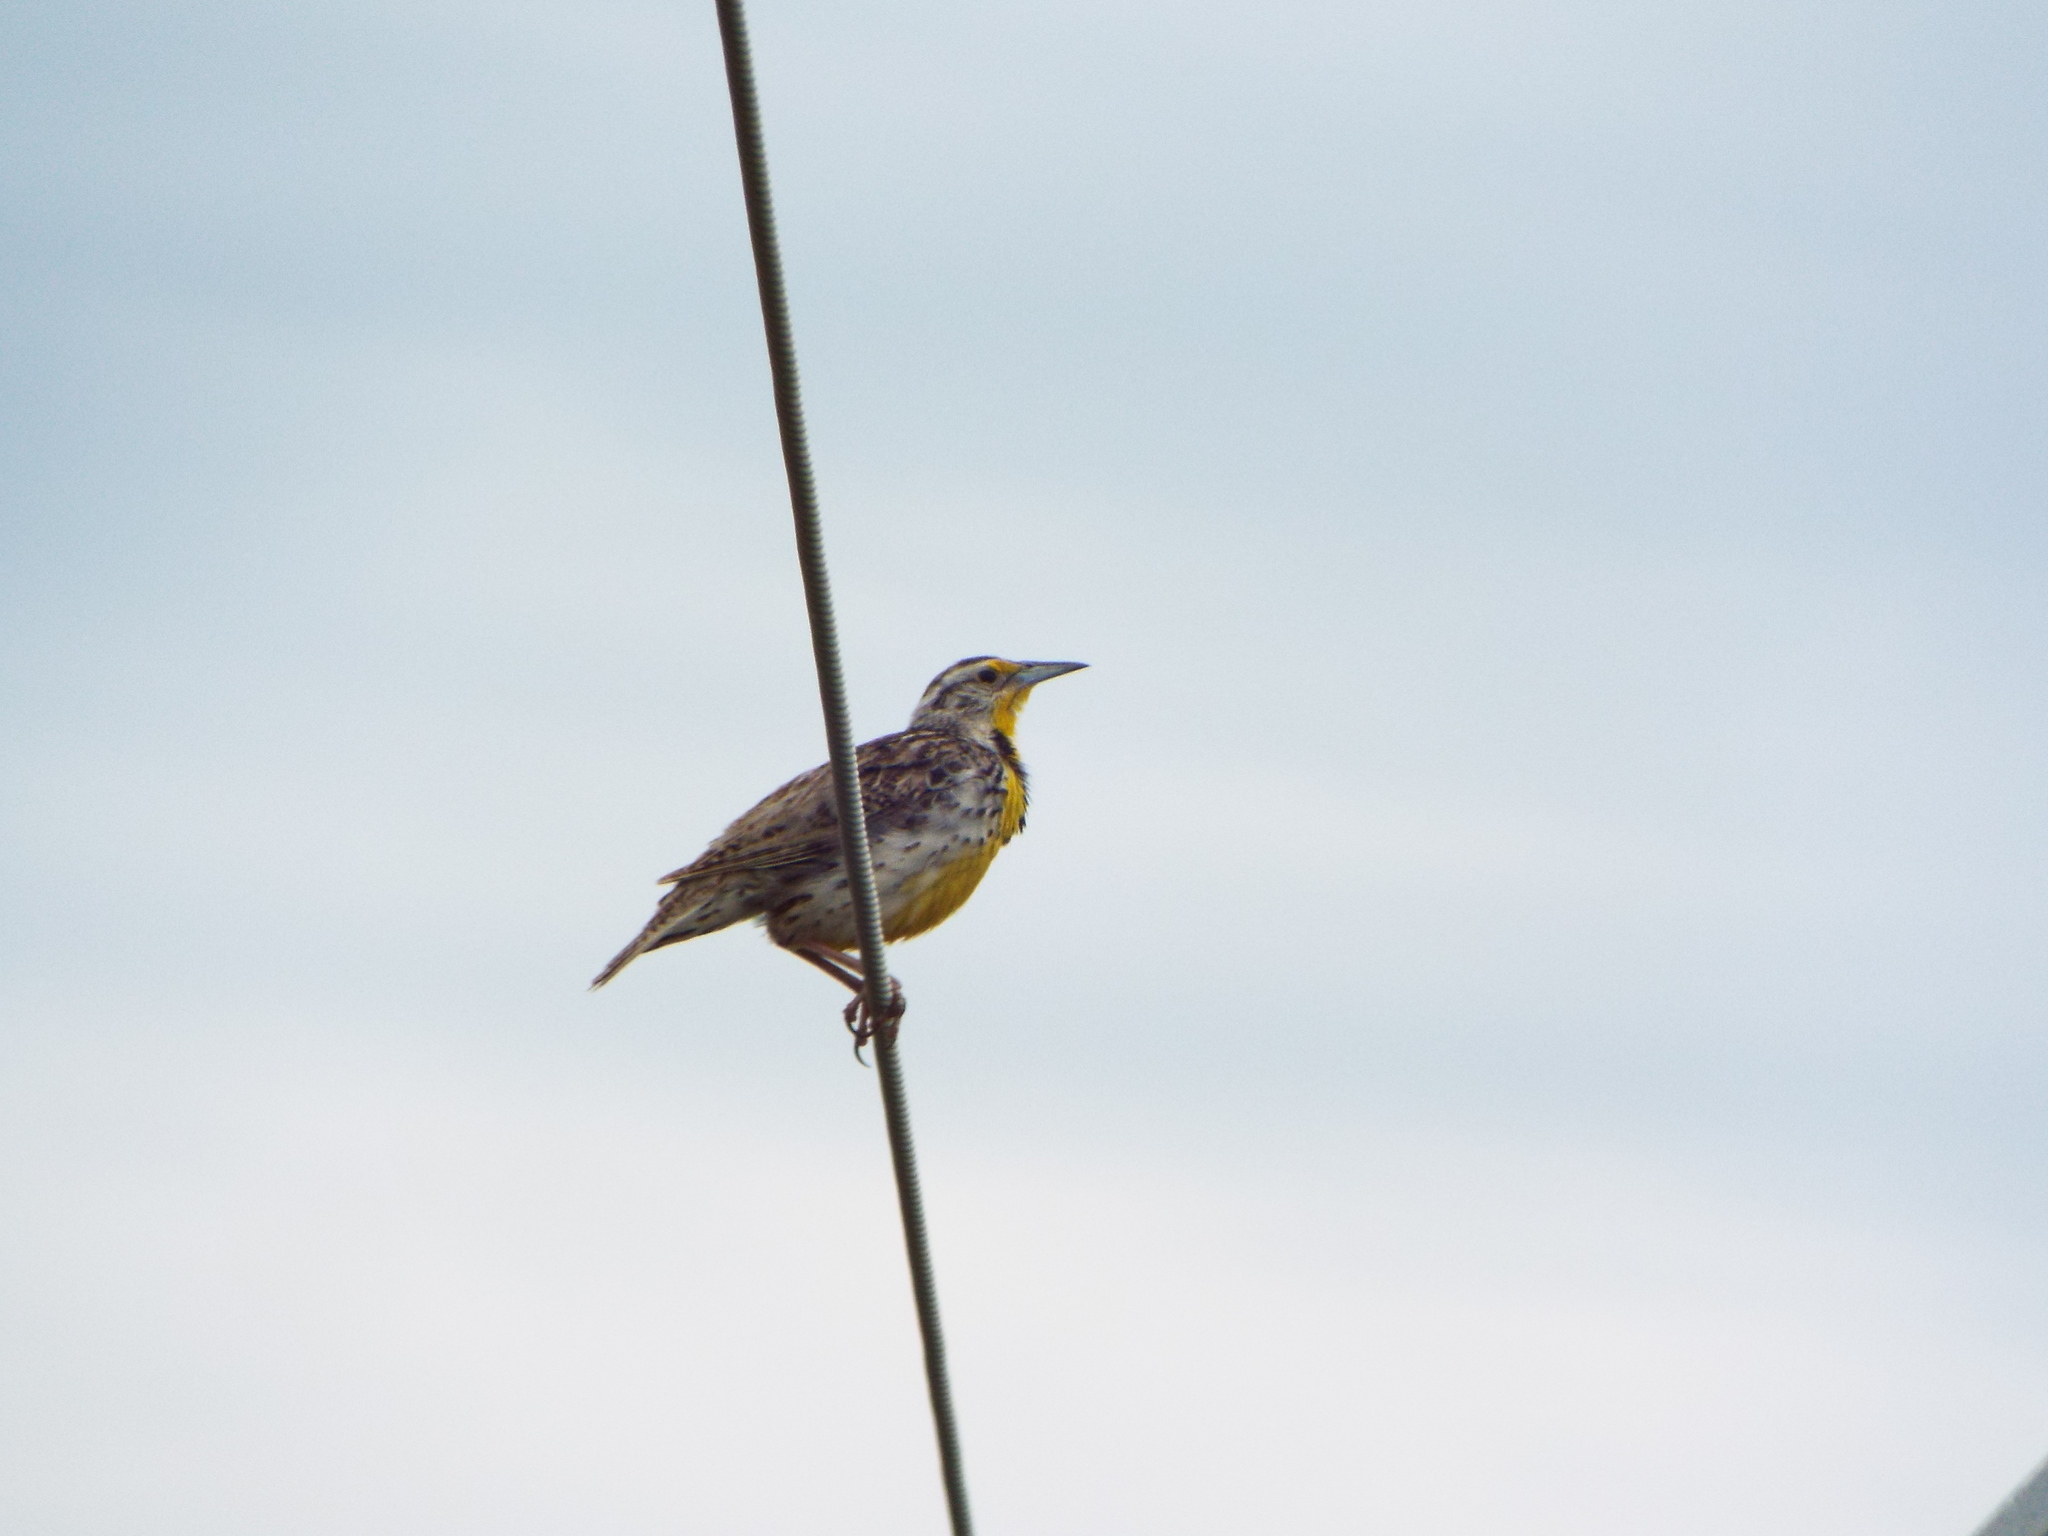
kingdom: Animalia
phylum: Chordata
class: Aves
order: Passeriformes
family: Icteridae
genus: Sturnella
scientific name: Sturnella neglecta
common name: Western meadowlark
